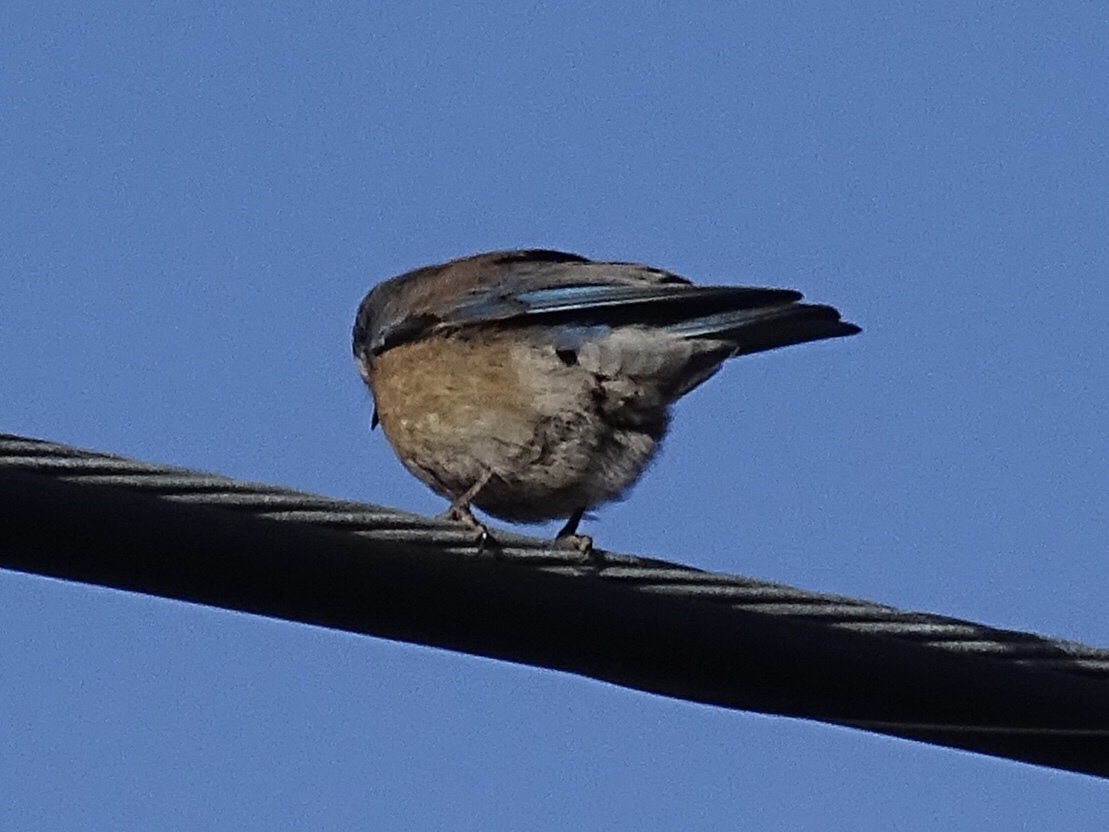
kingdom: Animalia
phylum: Chordata
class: Aves
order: Passeriformes
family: Turdidae
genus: Sialia
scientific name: Sialia mexicana
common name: Western bluebird
